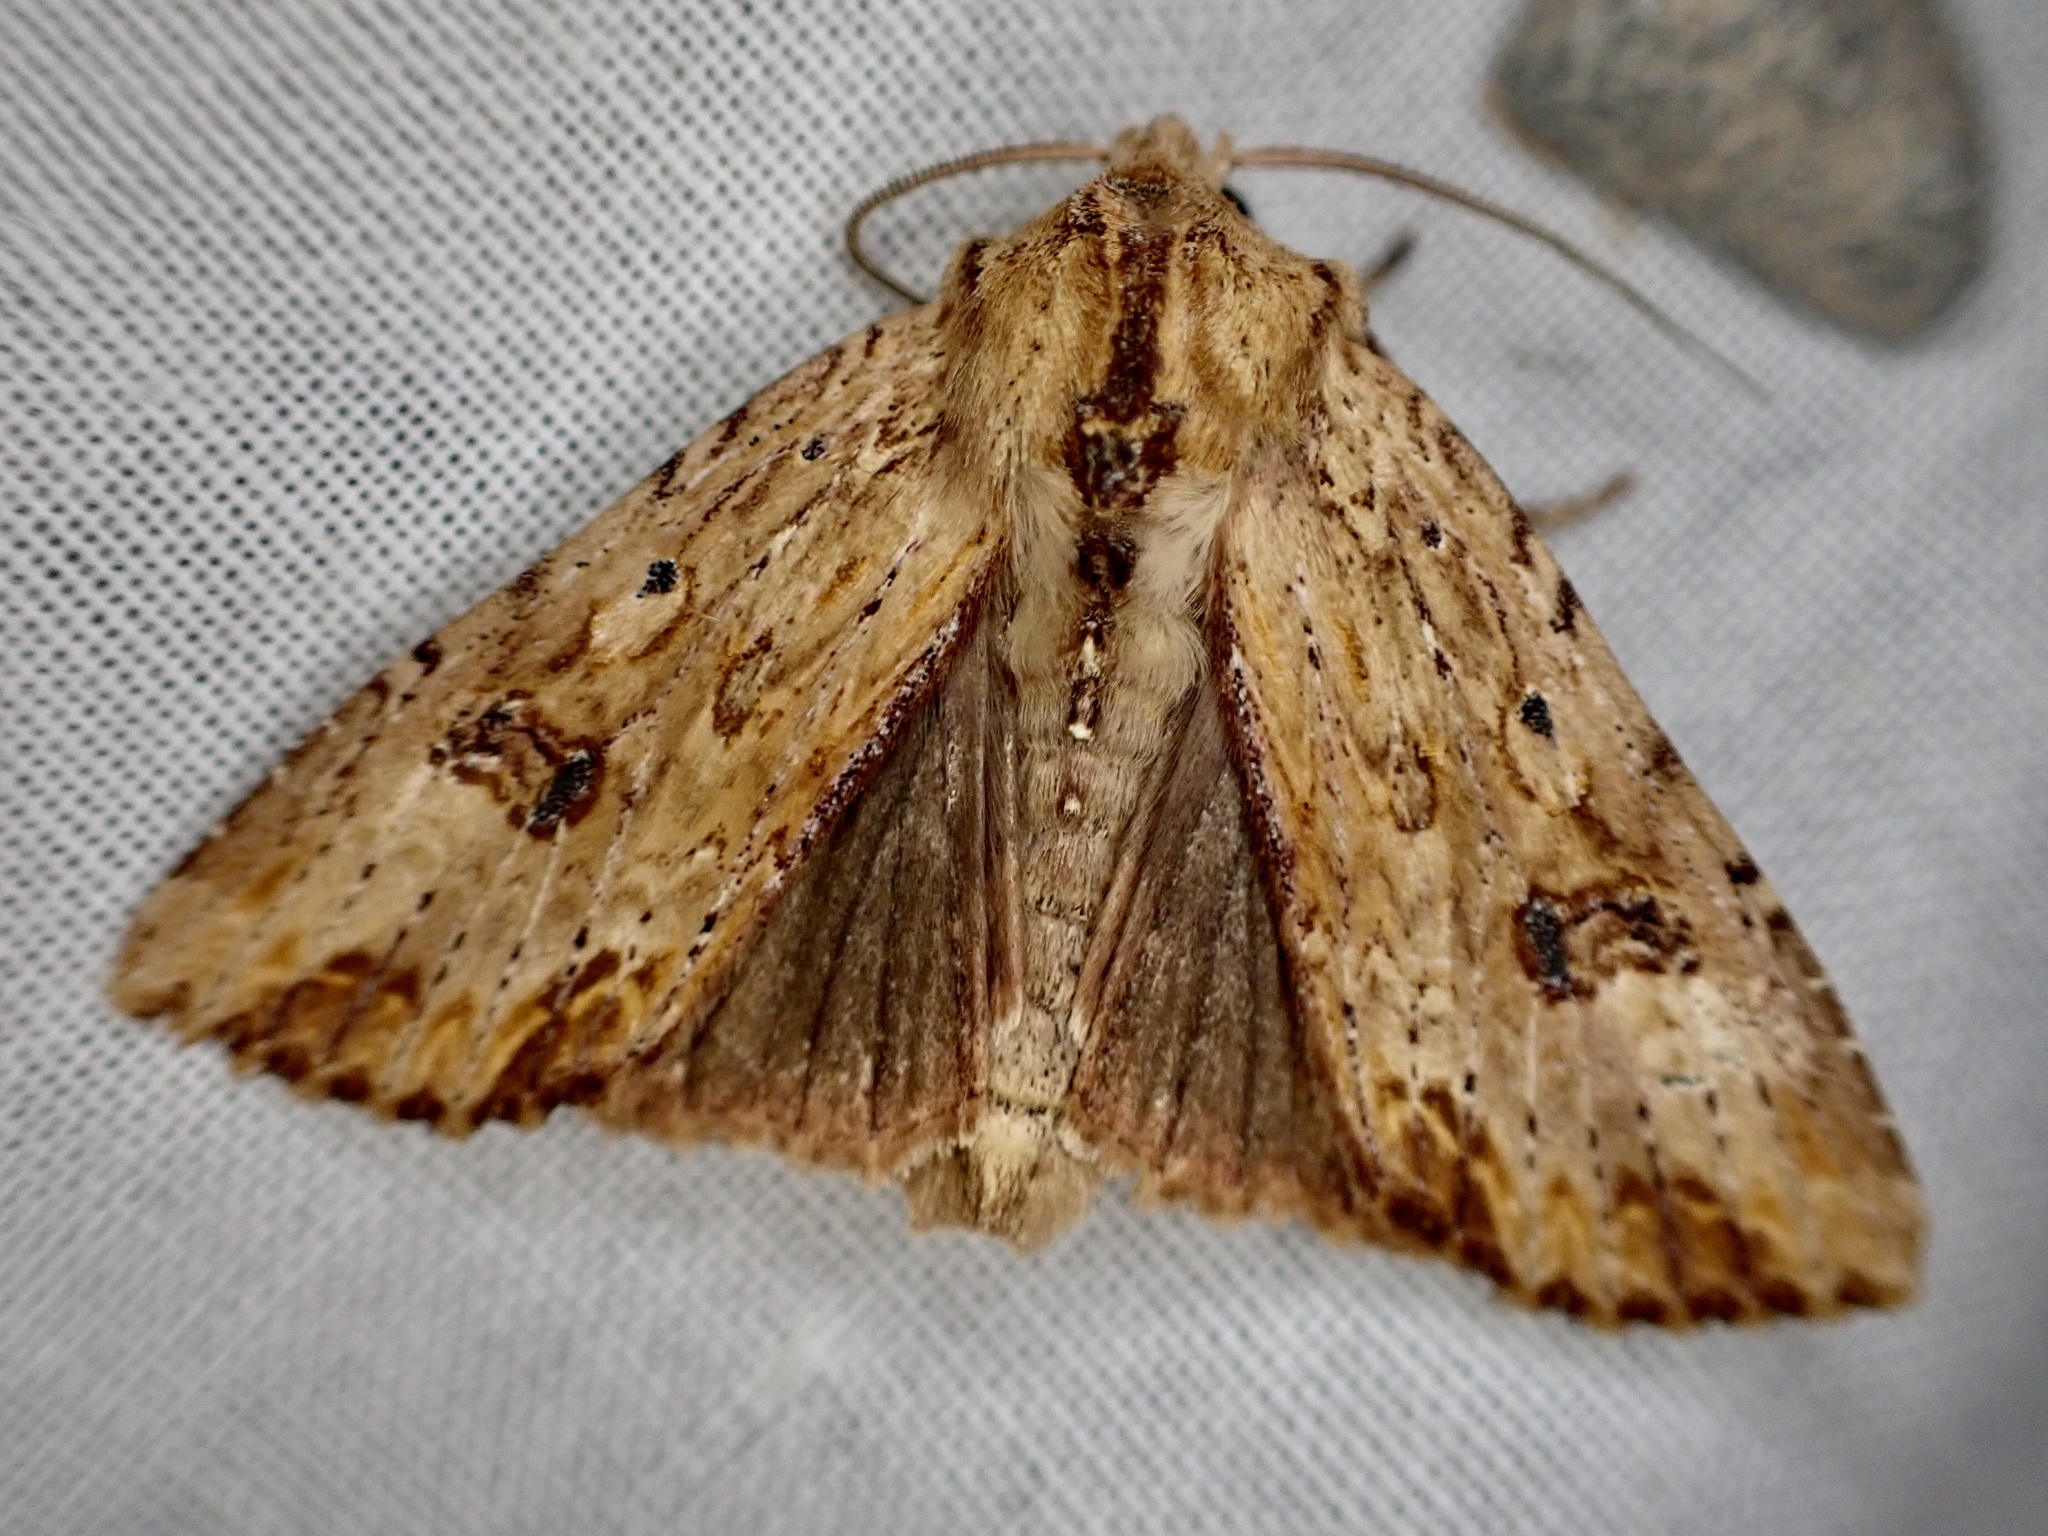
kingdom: Animalia
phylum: Arthropoda
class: Insecta
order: Lepidoptera
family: Noctuidae
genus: Ichneutica
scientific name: Ichneutica
